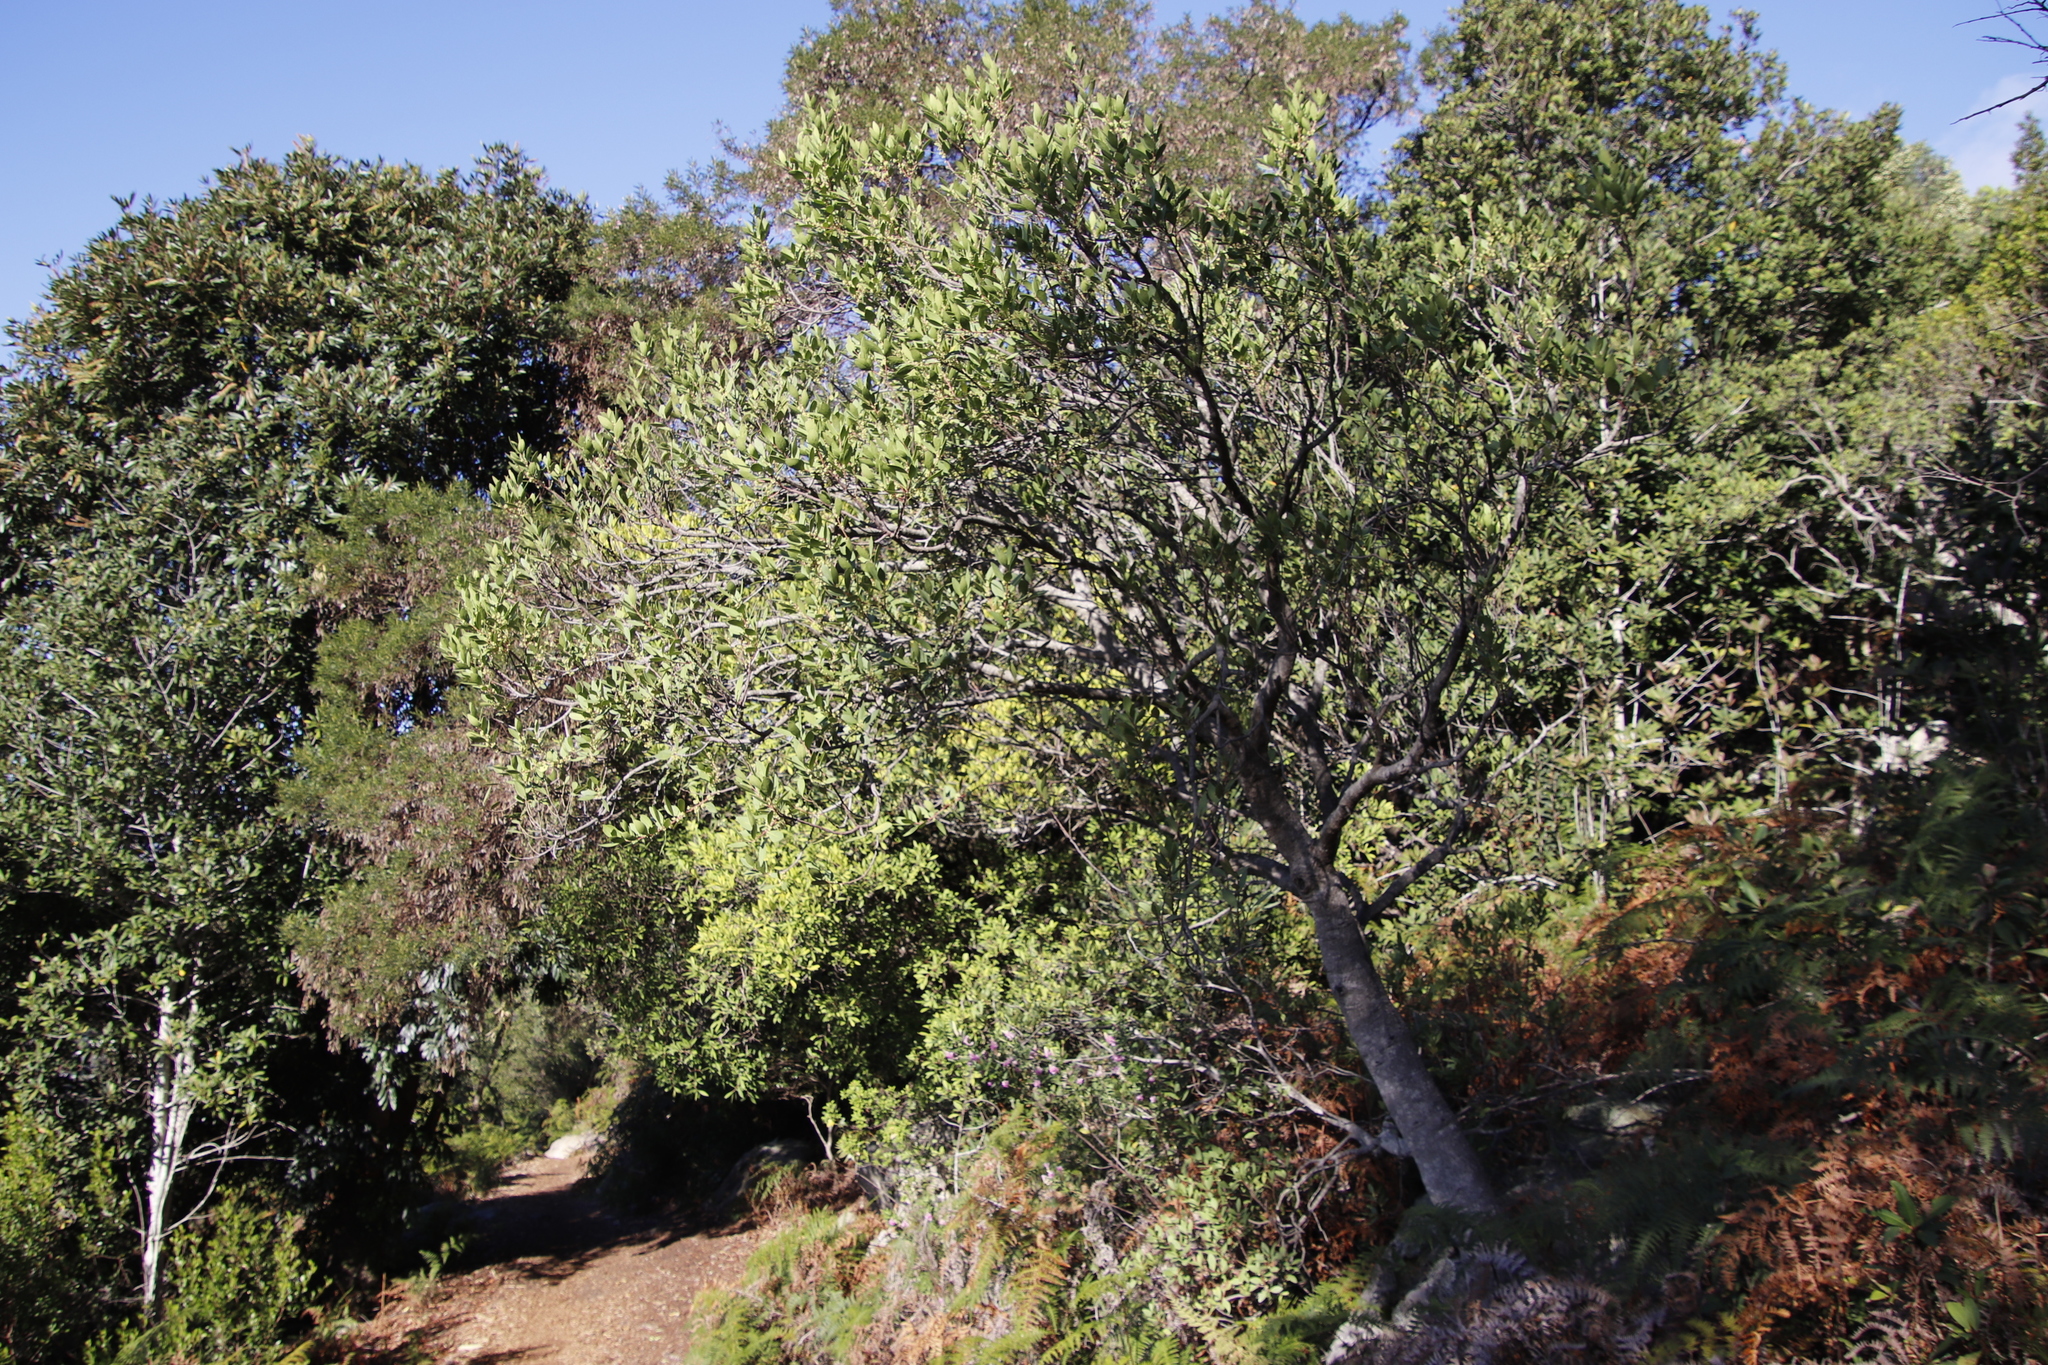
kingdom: Plantae
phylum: Tracheophyta
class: Magnoliopsida
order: Celastrales
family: Celastraceae
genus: Pterocelastrus
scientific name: Pterocelastrus tricuspidatus
